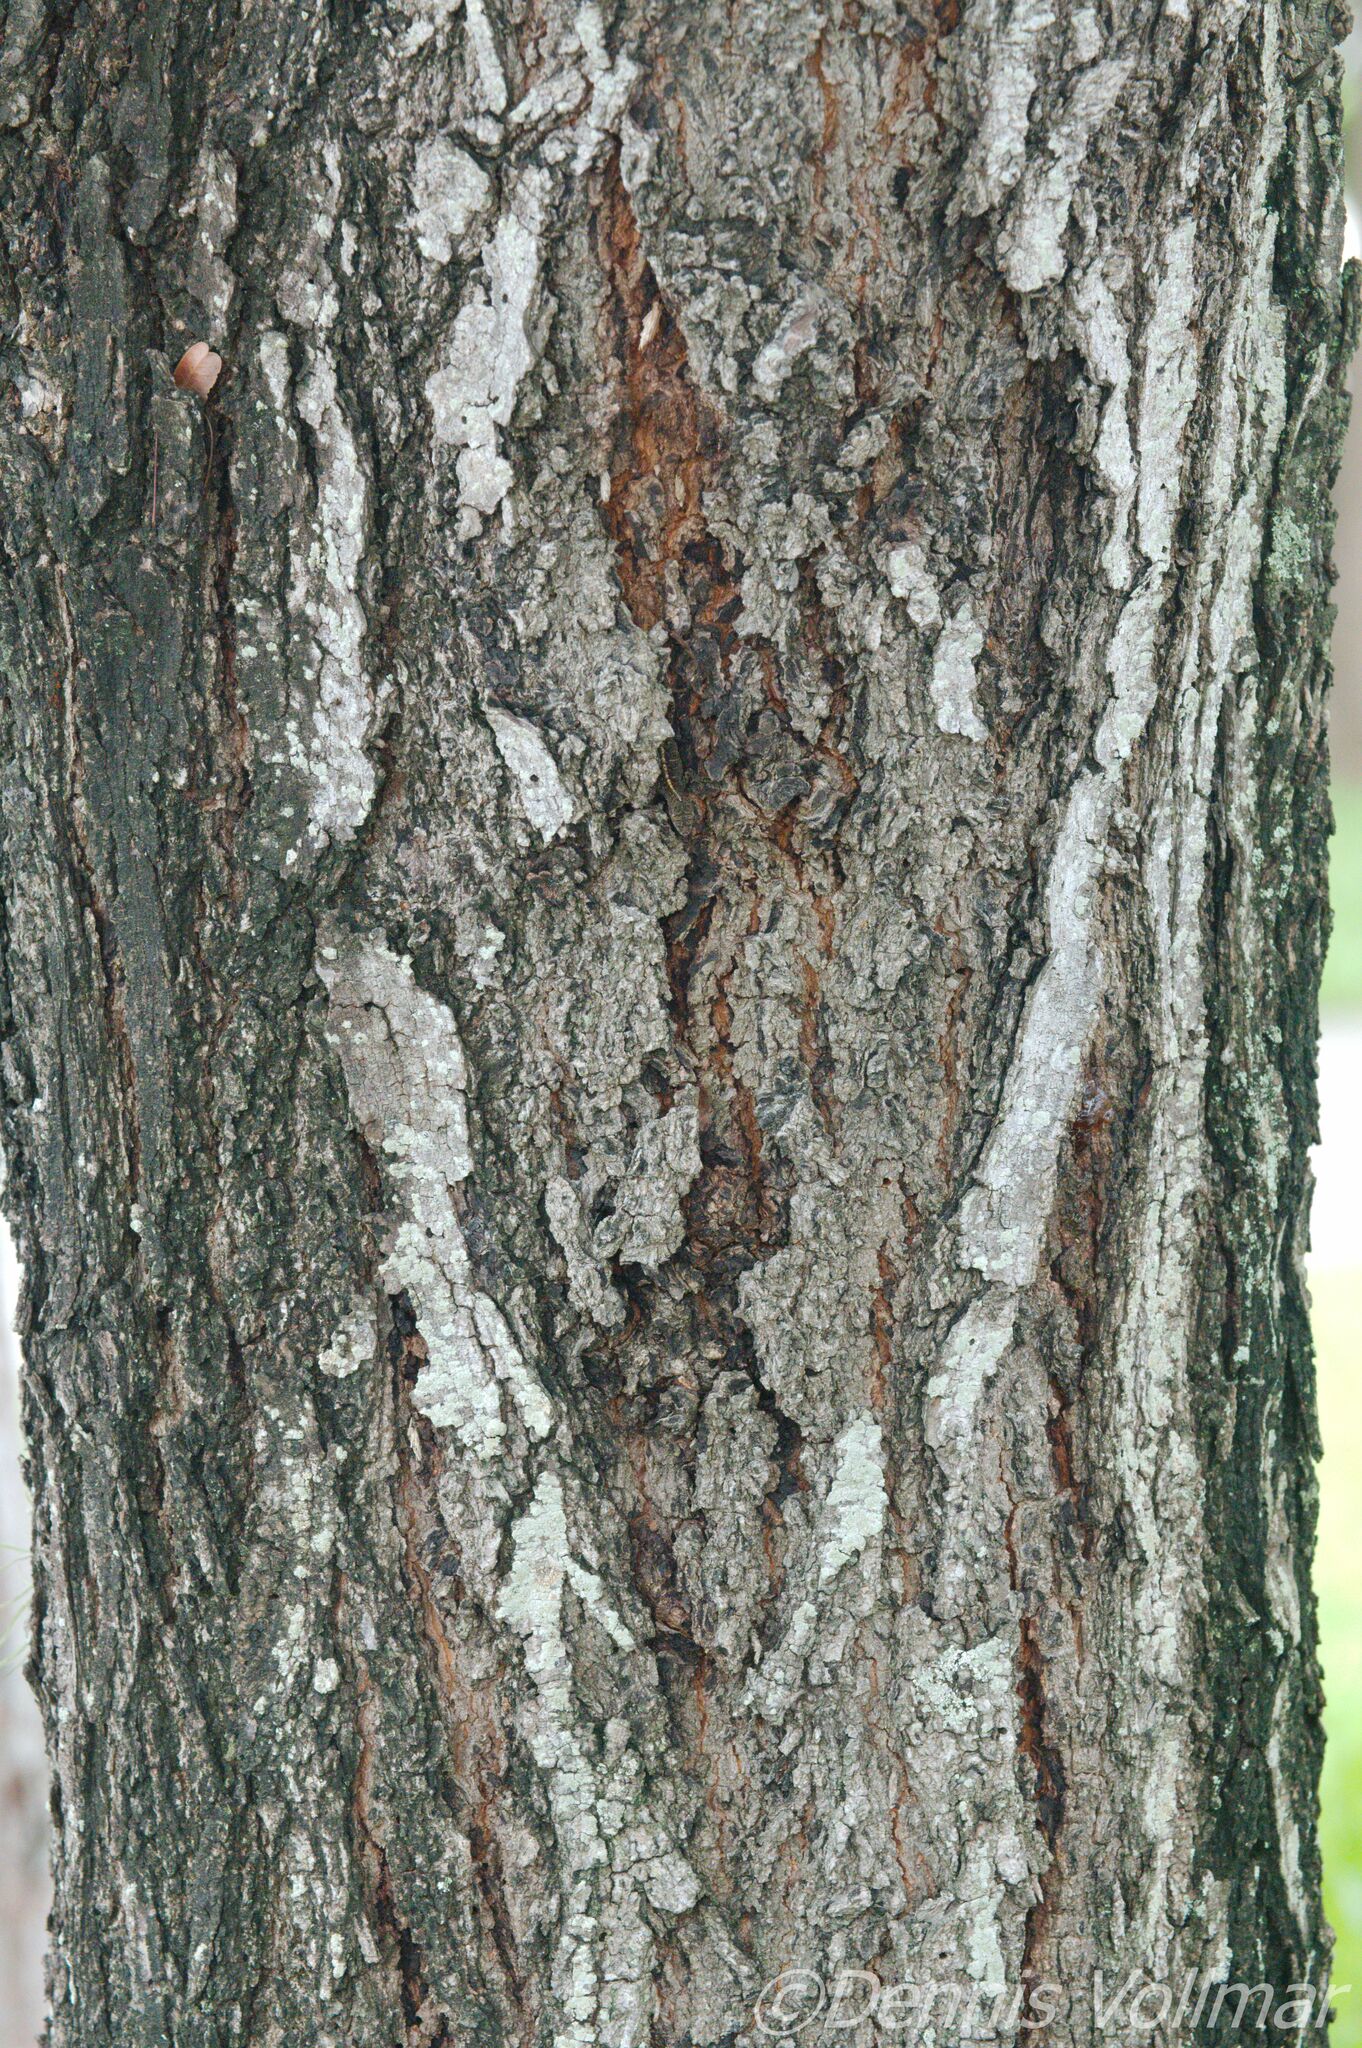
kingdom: Plantae
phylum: Tracheophyta
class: Magnoliopsida
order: Sapindales
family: Meliaceae
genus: Swietenia
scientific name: Swietenia mahagoni
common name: West indian mahogany
